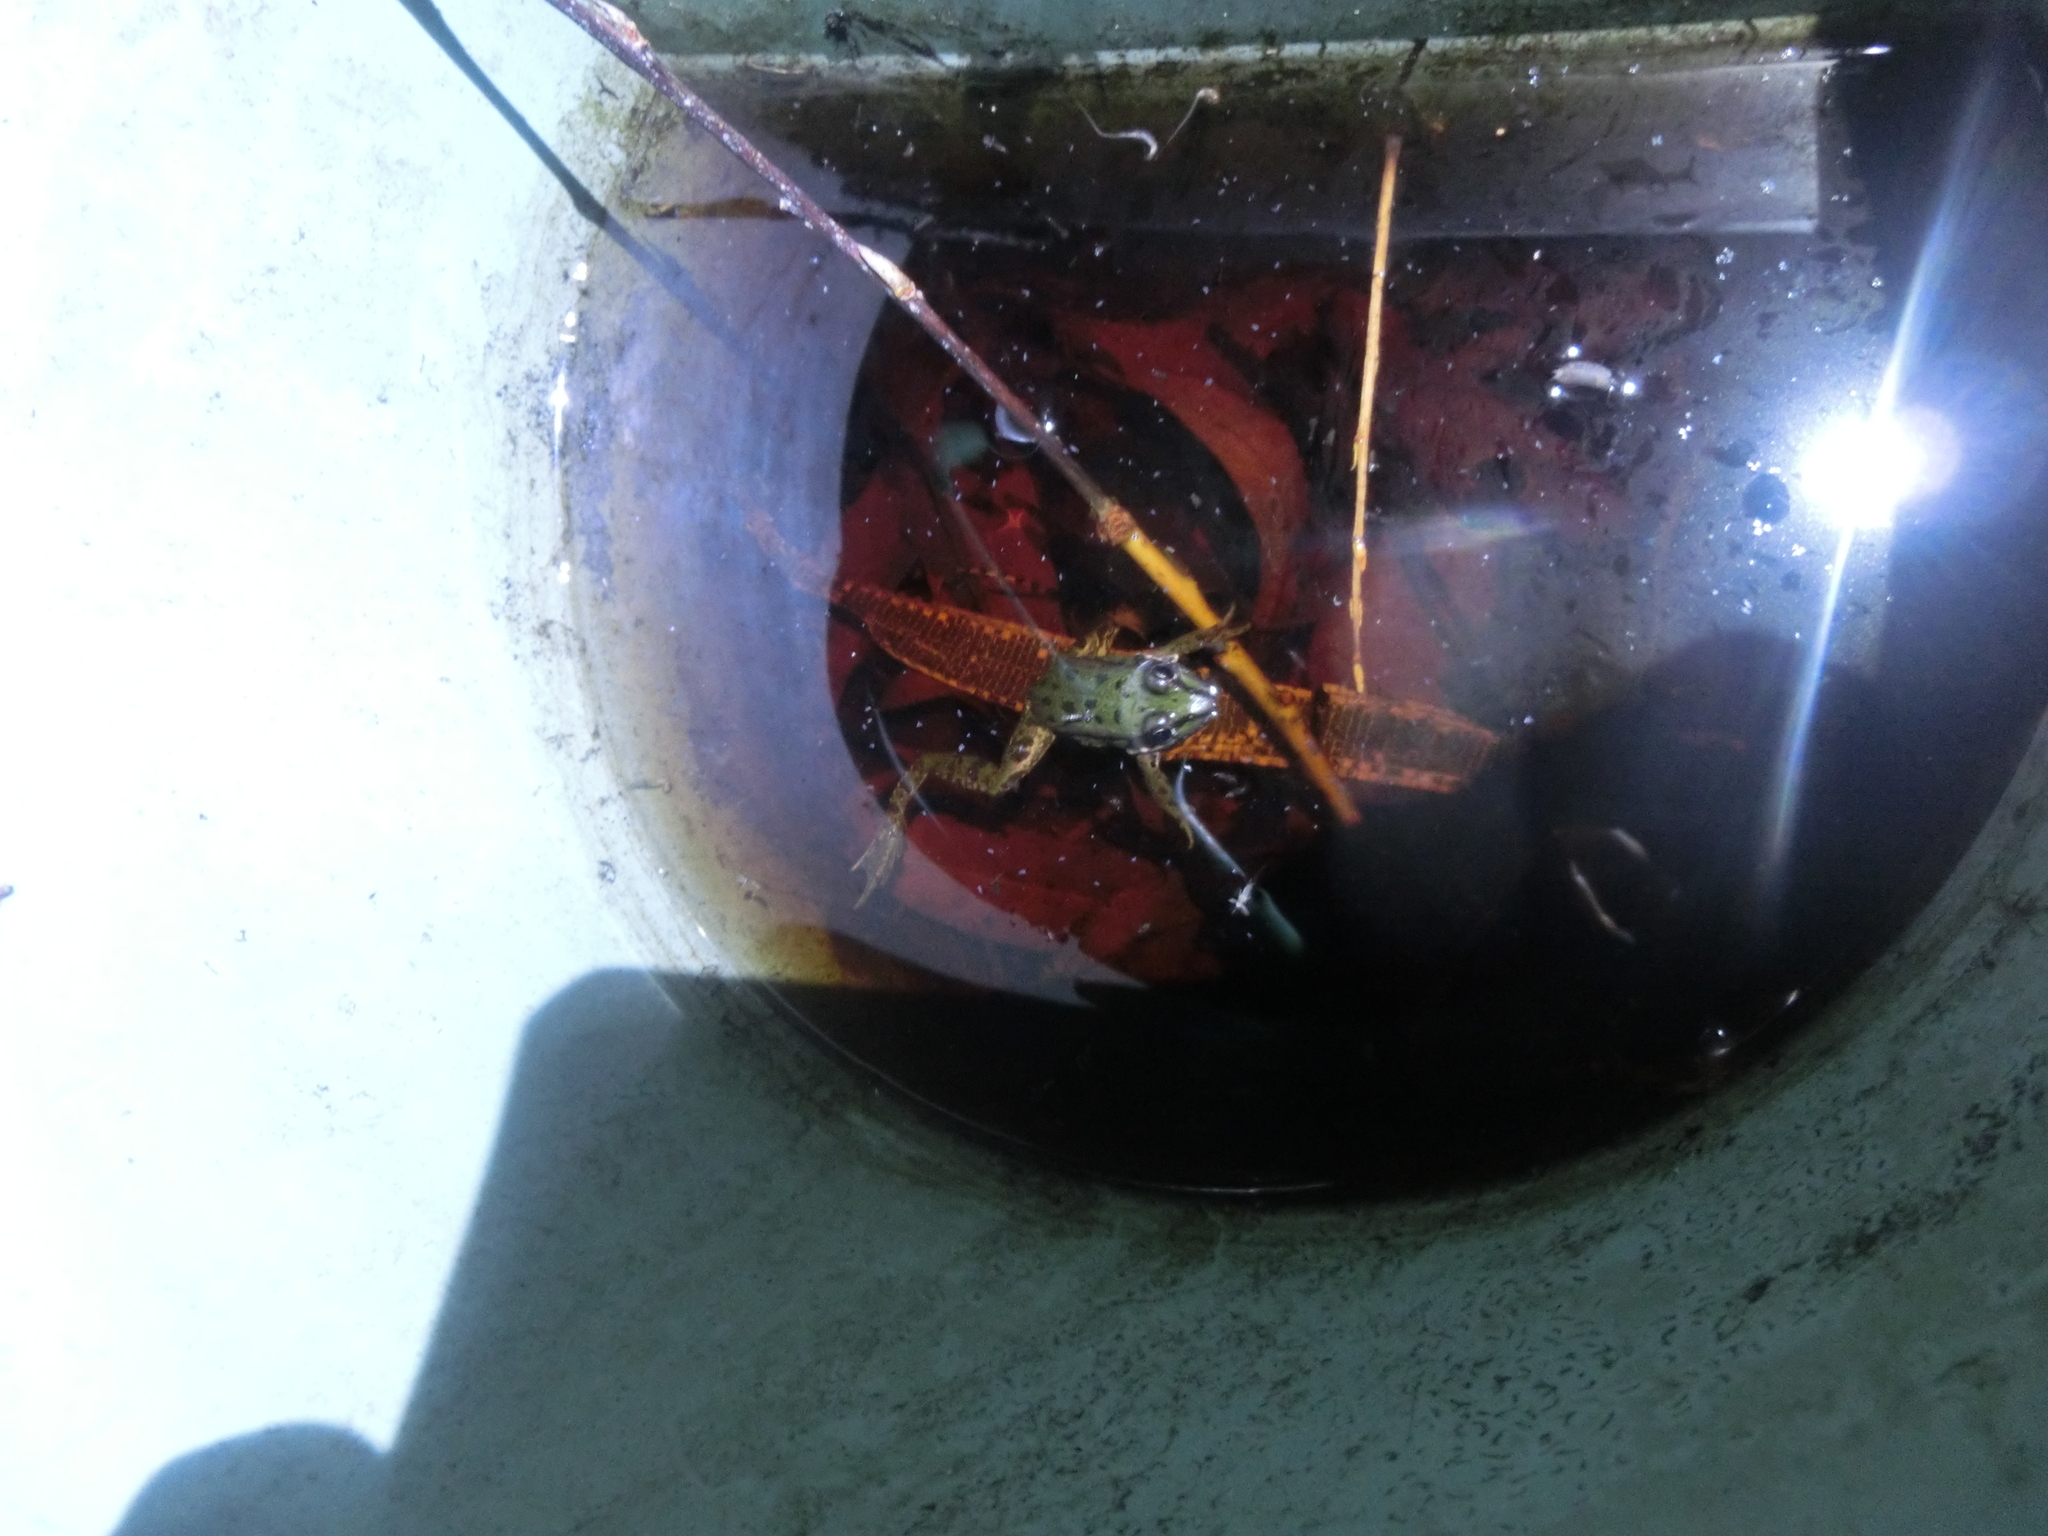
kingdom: Animalia
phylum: Chordata
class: Amphibia
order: Anura
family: Ranidae
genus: Pelophylax
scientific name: Pelophylax lessonae
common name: Pool frog
